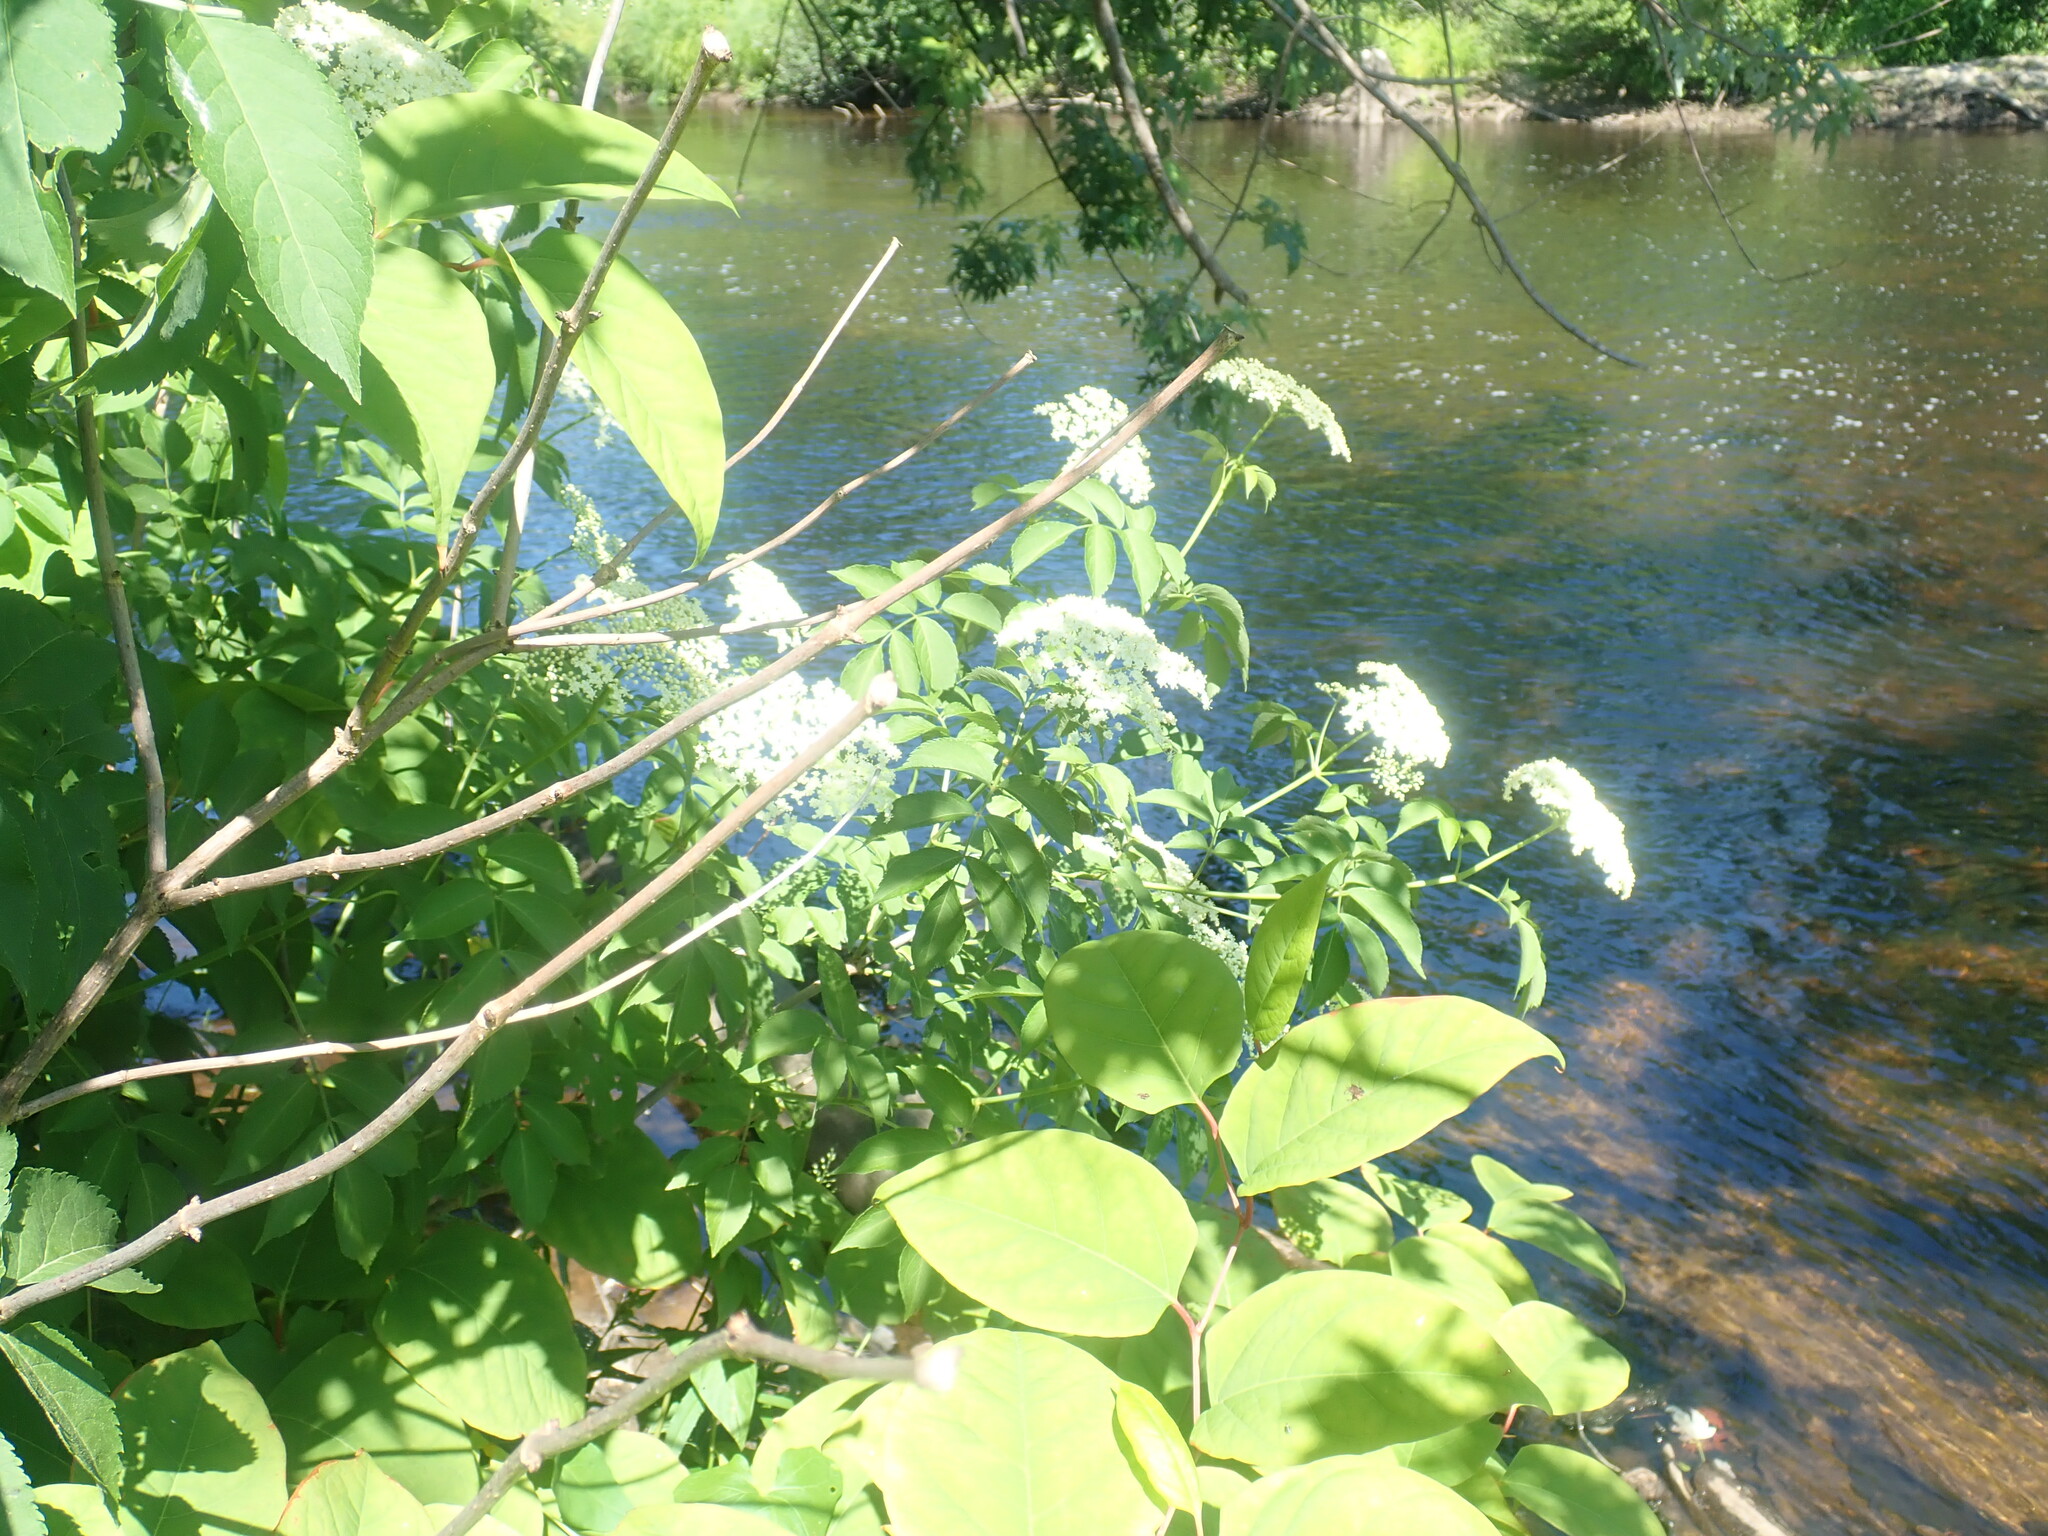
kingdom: Plantae
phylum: Tracheophyta
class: Magnoliopsida
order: Dipsacales
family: Viburnaceae
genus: Sambucus
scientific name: Sambucus canadensis
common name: American elder
